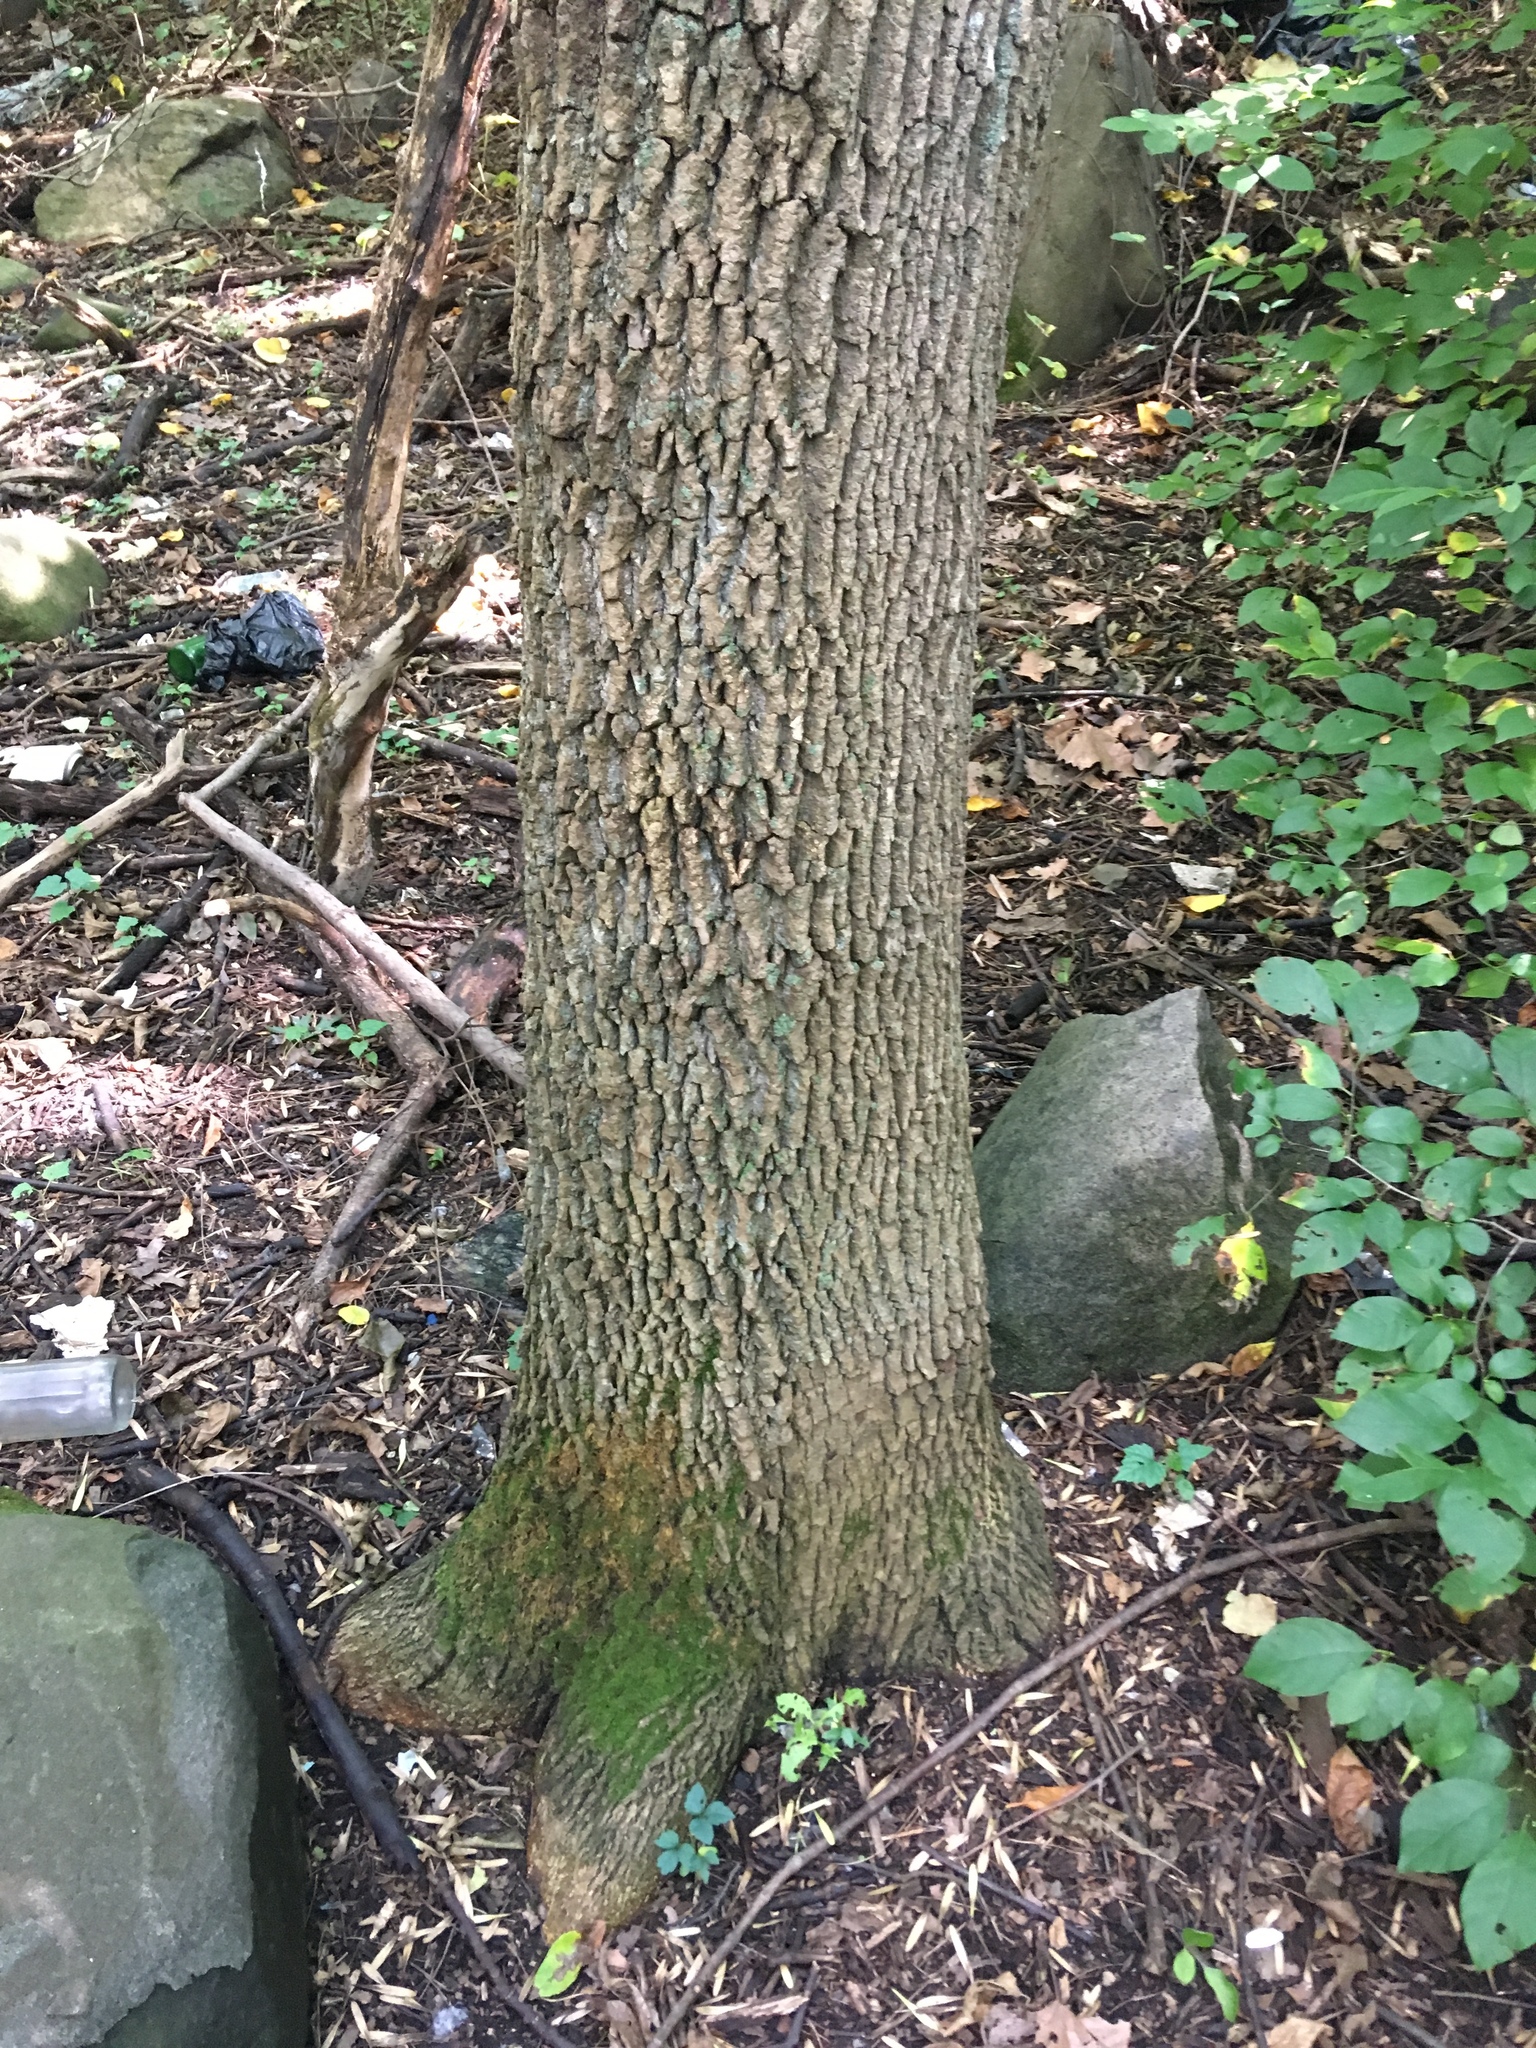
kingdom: Plantae
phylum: Tracheophyta
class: Magnoliopsida
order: Lamiales
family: Oleaceae
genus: Fraxinus
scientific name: Fraxinus pennsylvanica
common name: Green ash
